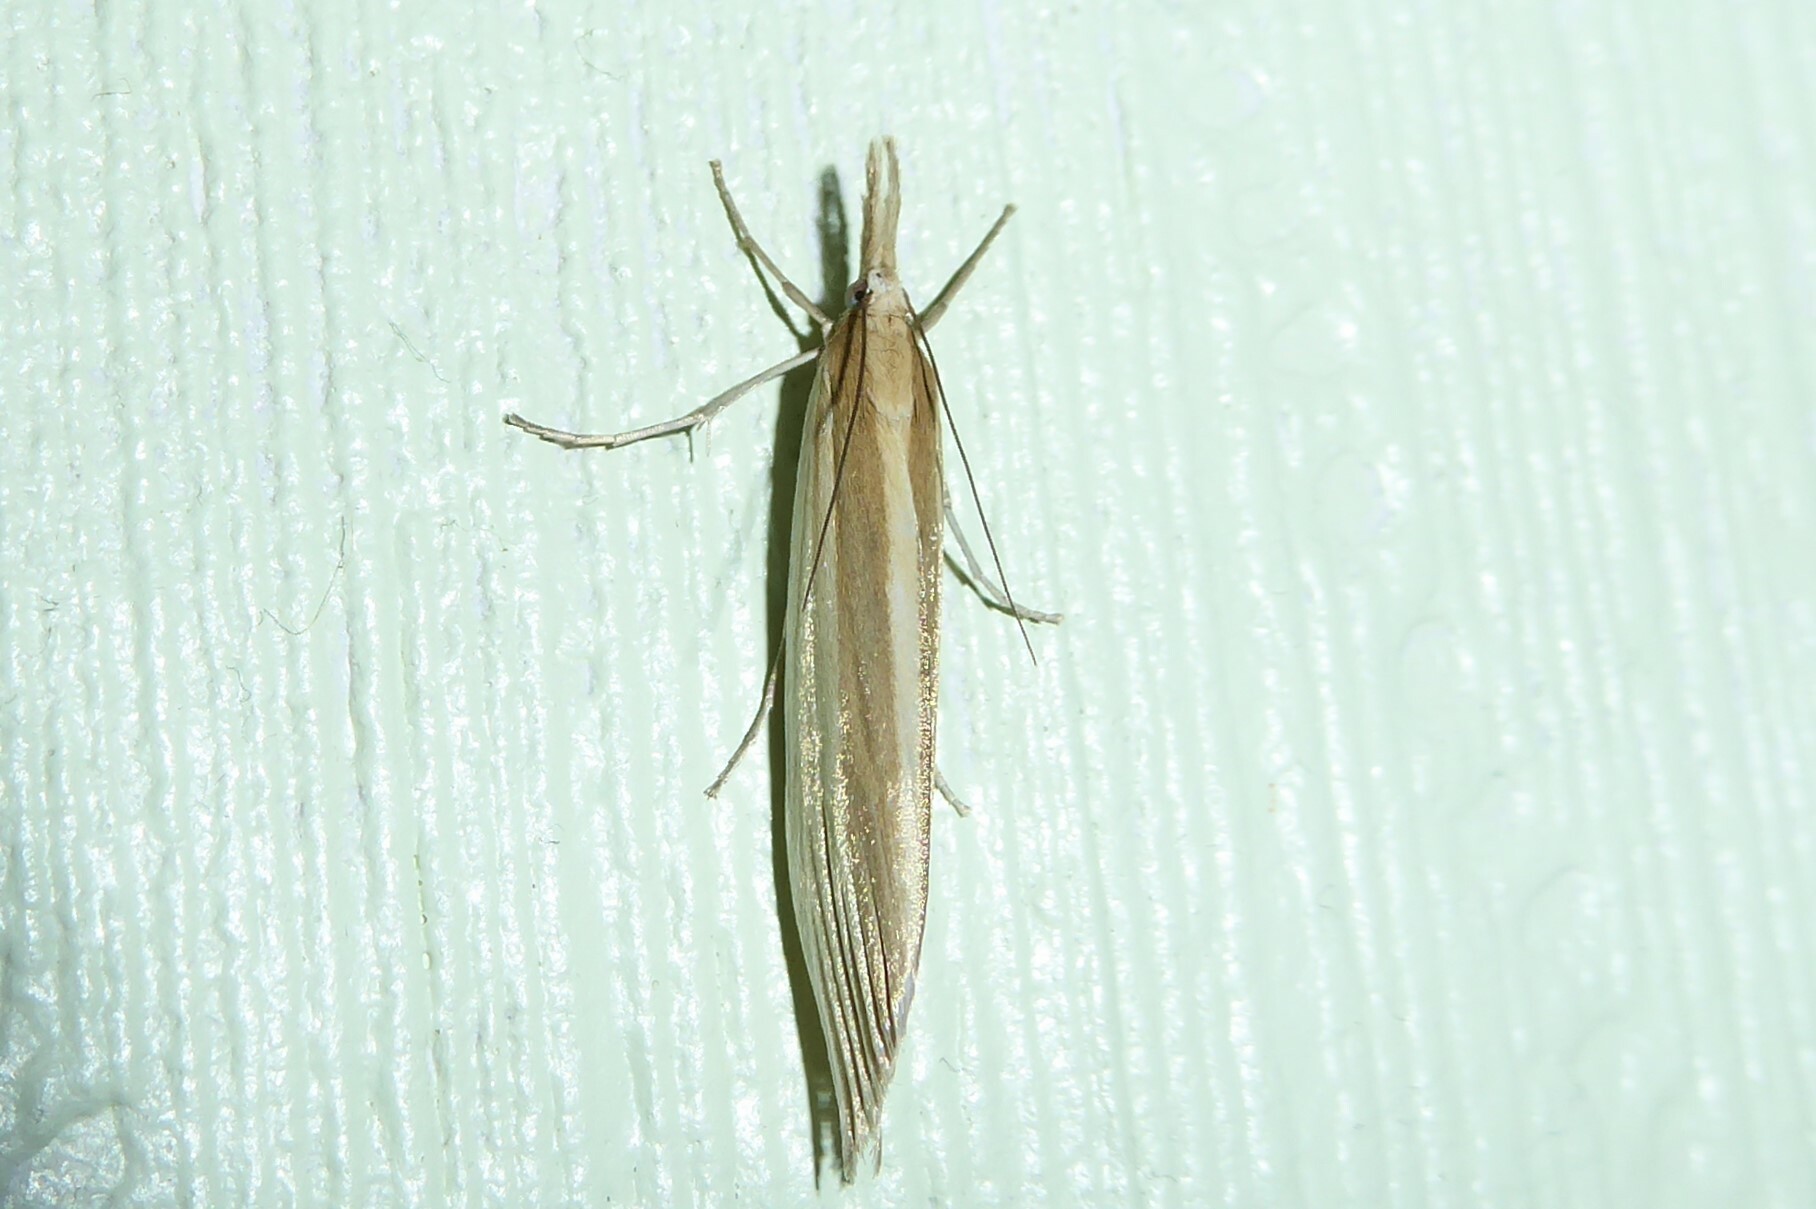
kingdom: Animalia
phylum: Arthropoda
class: Insecta
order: Lepidoptera
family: Crambidae
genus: Orocrambus
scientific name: Orocrambus angustipennis
